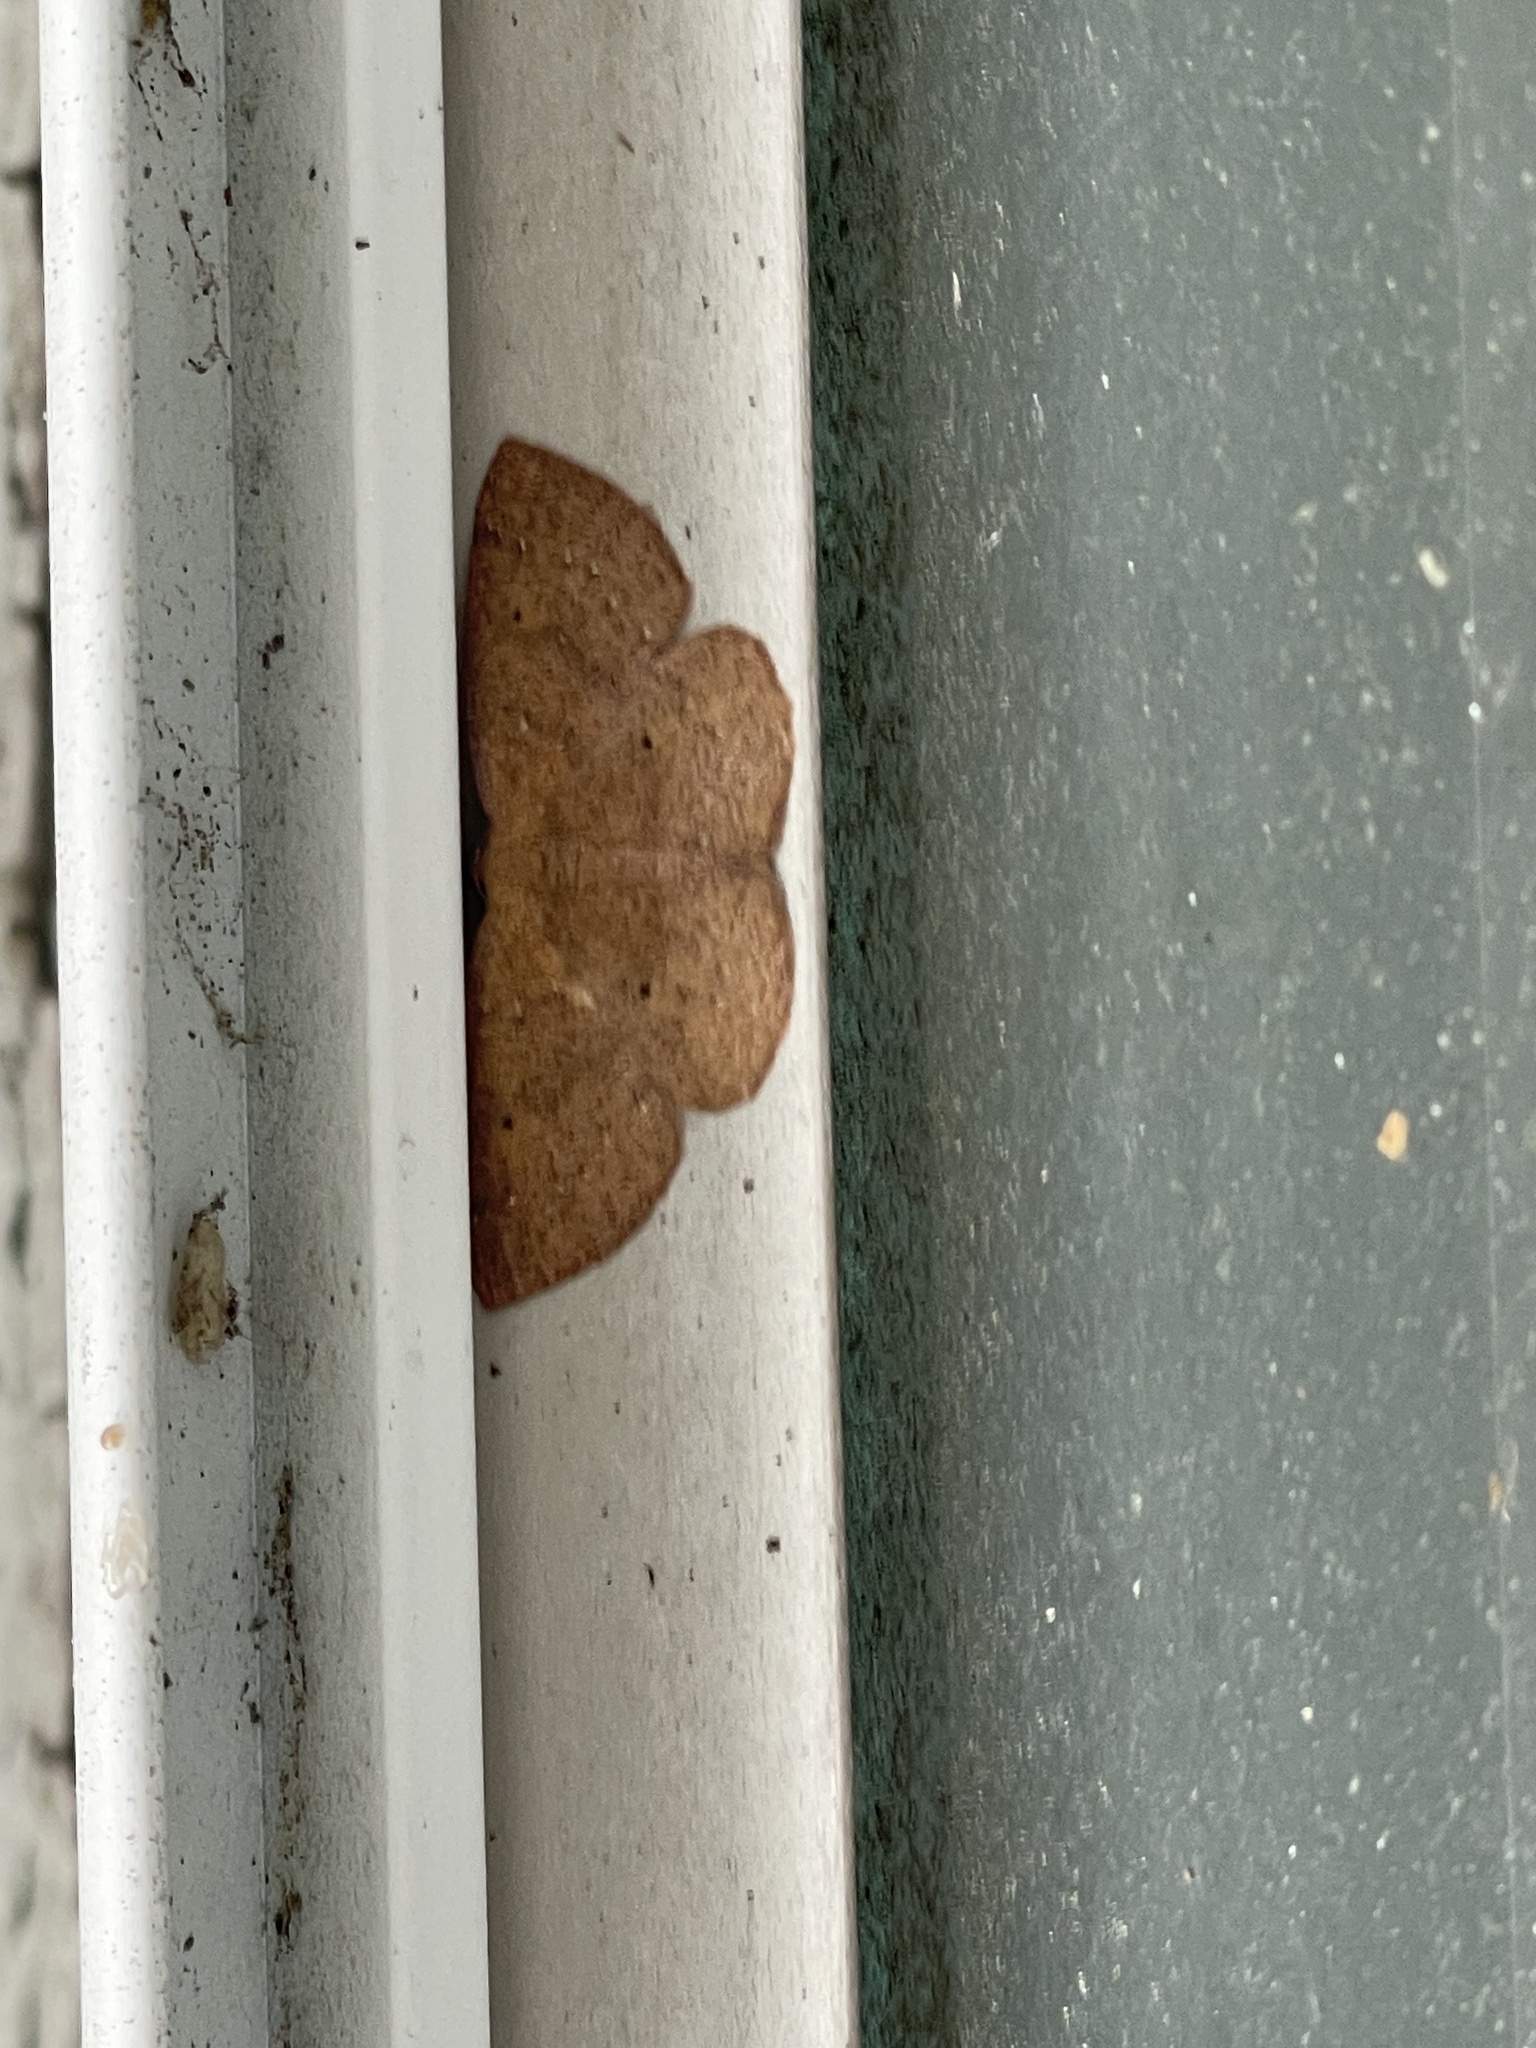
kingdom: Animalia
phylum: Arthropoda
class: Insecta
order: Lepidoptera
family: Geometridae
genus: Ilexia
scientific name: Ilexia intractata
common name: Black-dotted ruddy moth
